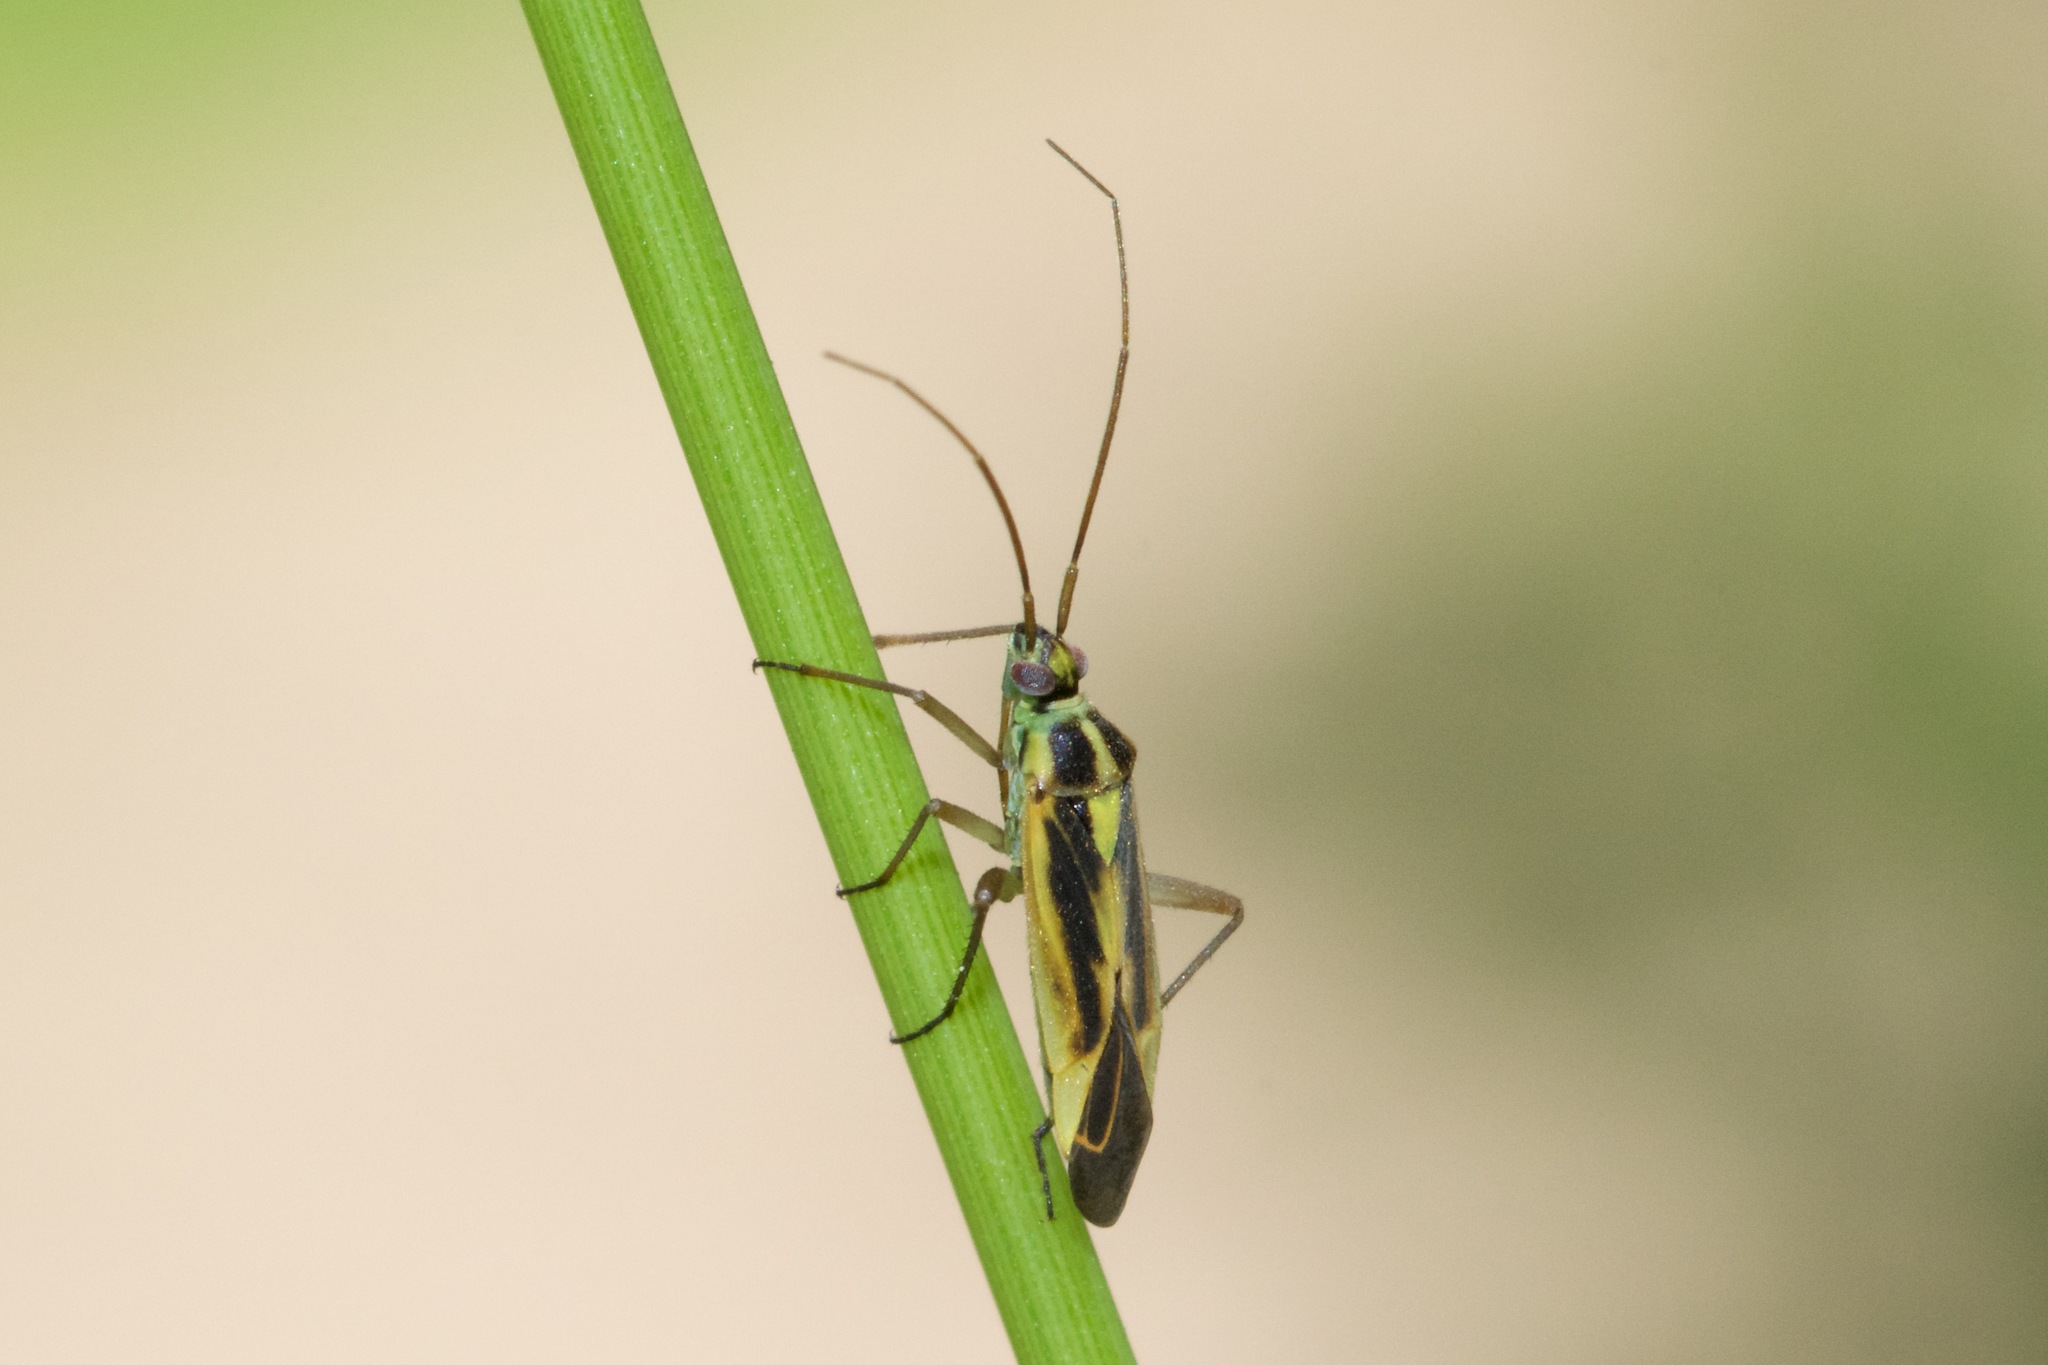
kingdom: Animalia
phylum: Arthropoda
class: Insecta
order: Hemiptera
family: Miridae
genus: Stenotus
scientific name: Stenotus binotatus
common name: Plant bug
